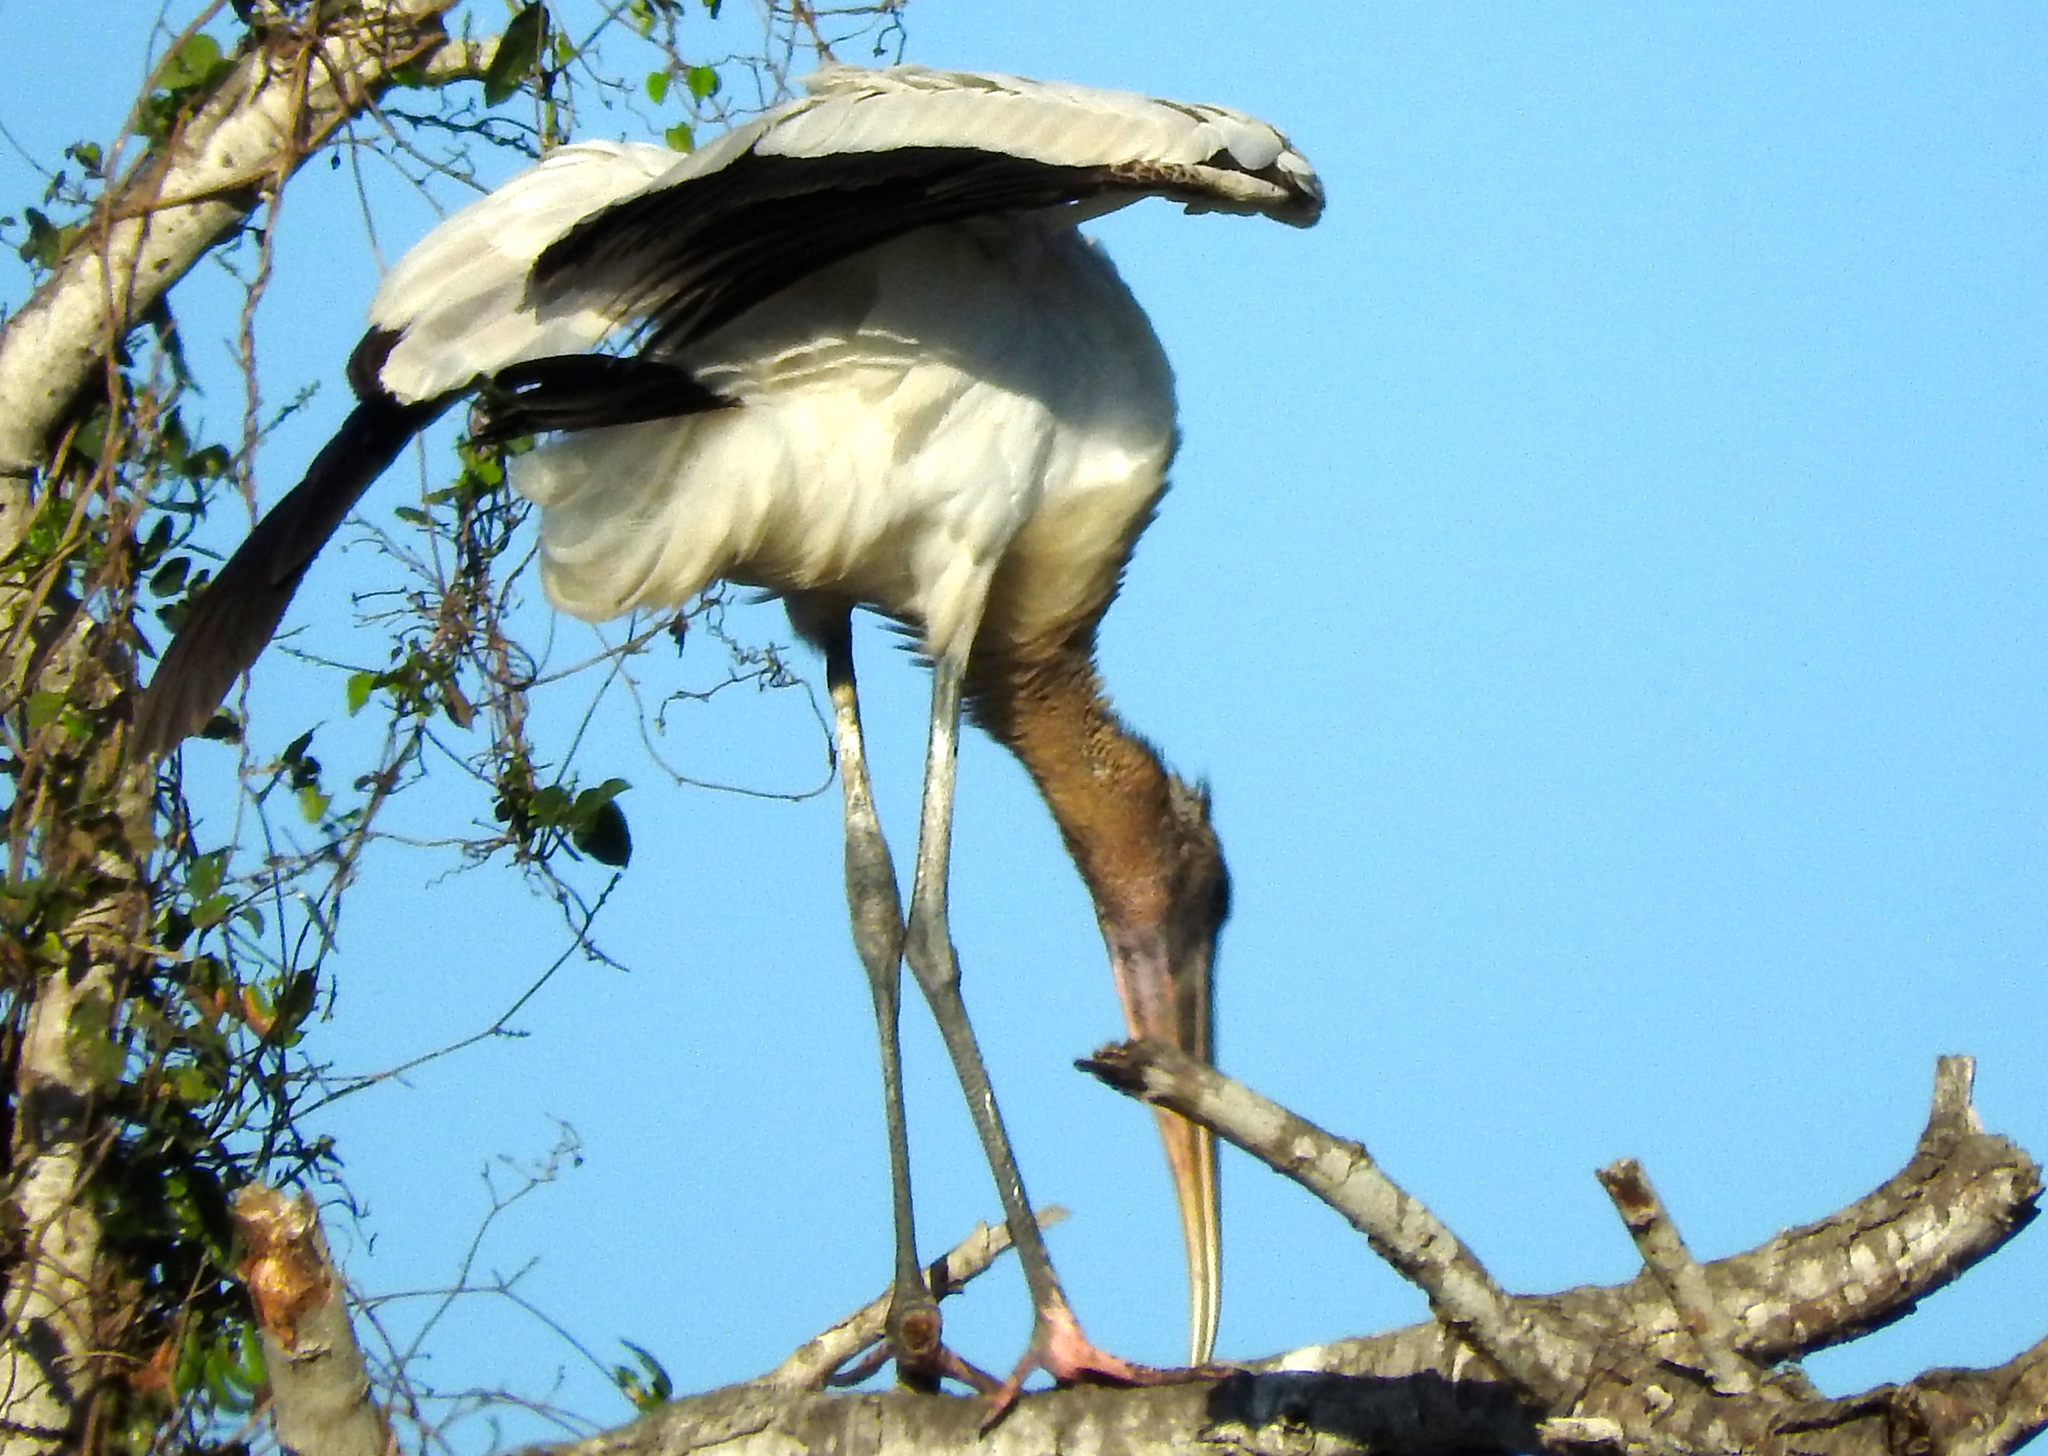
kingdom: Animalia
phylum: Chordata
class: Aves
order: Ciconiiformes
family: Ciconiidae
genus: Mycteria
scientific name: Mycteria americana
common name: Wood stork
